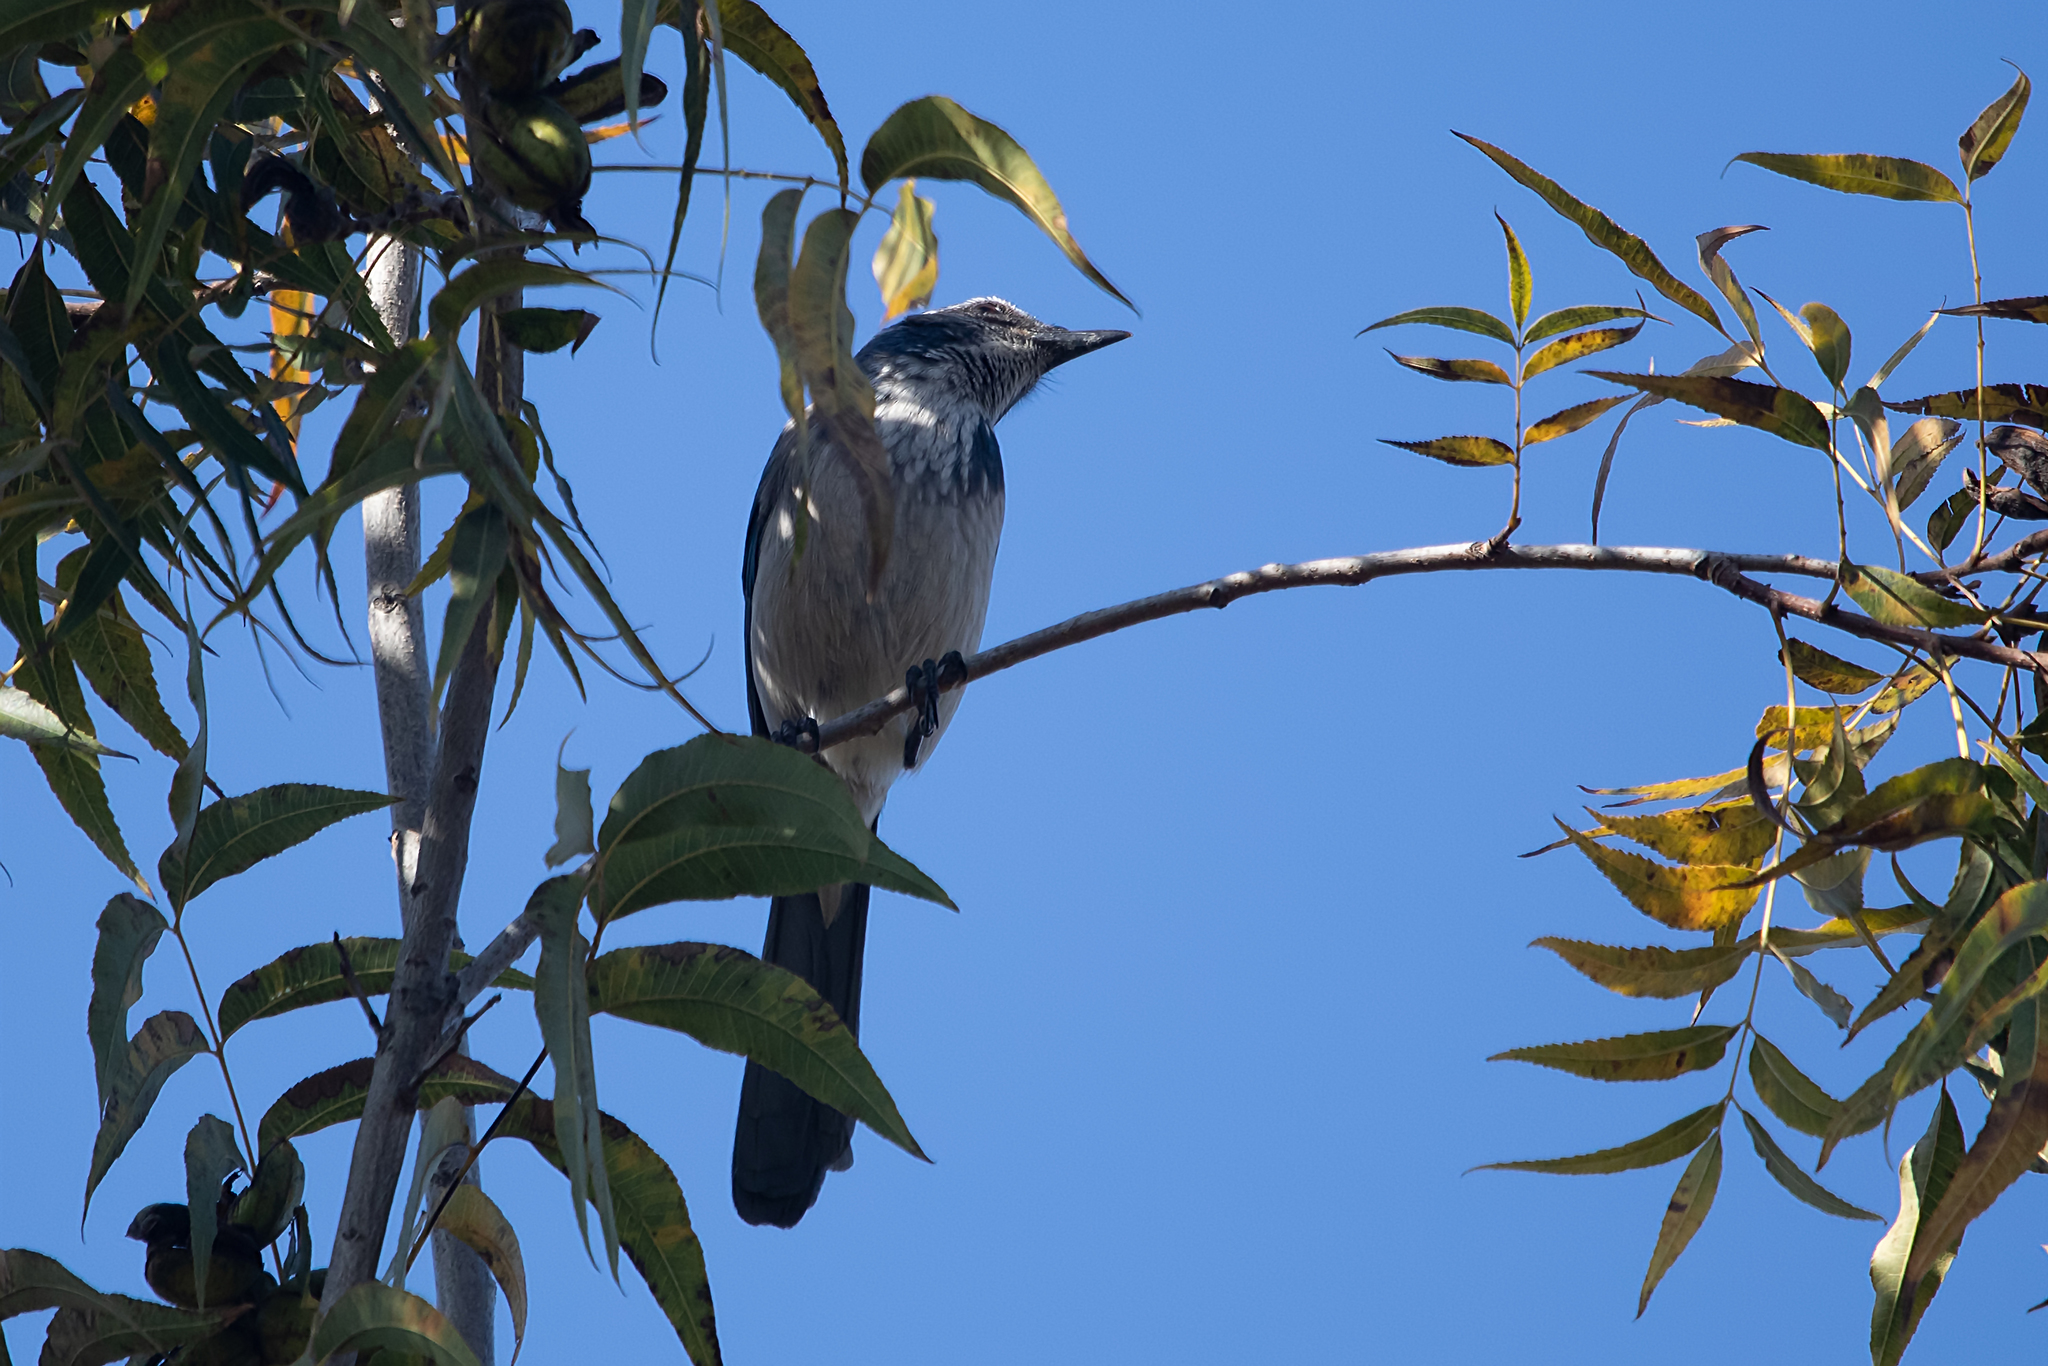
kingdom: Animalia
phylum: Chordata
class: Aves
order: Passeriformes
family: Corvidae
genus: Aphelocoma
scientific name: Aphelocoma californica
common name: California scrub-jay
